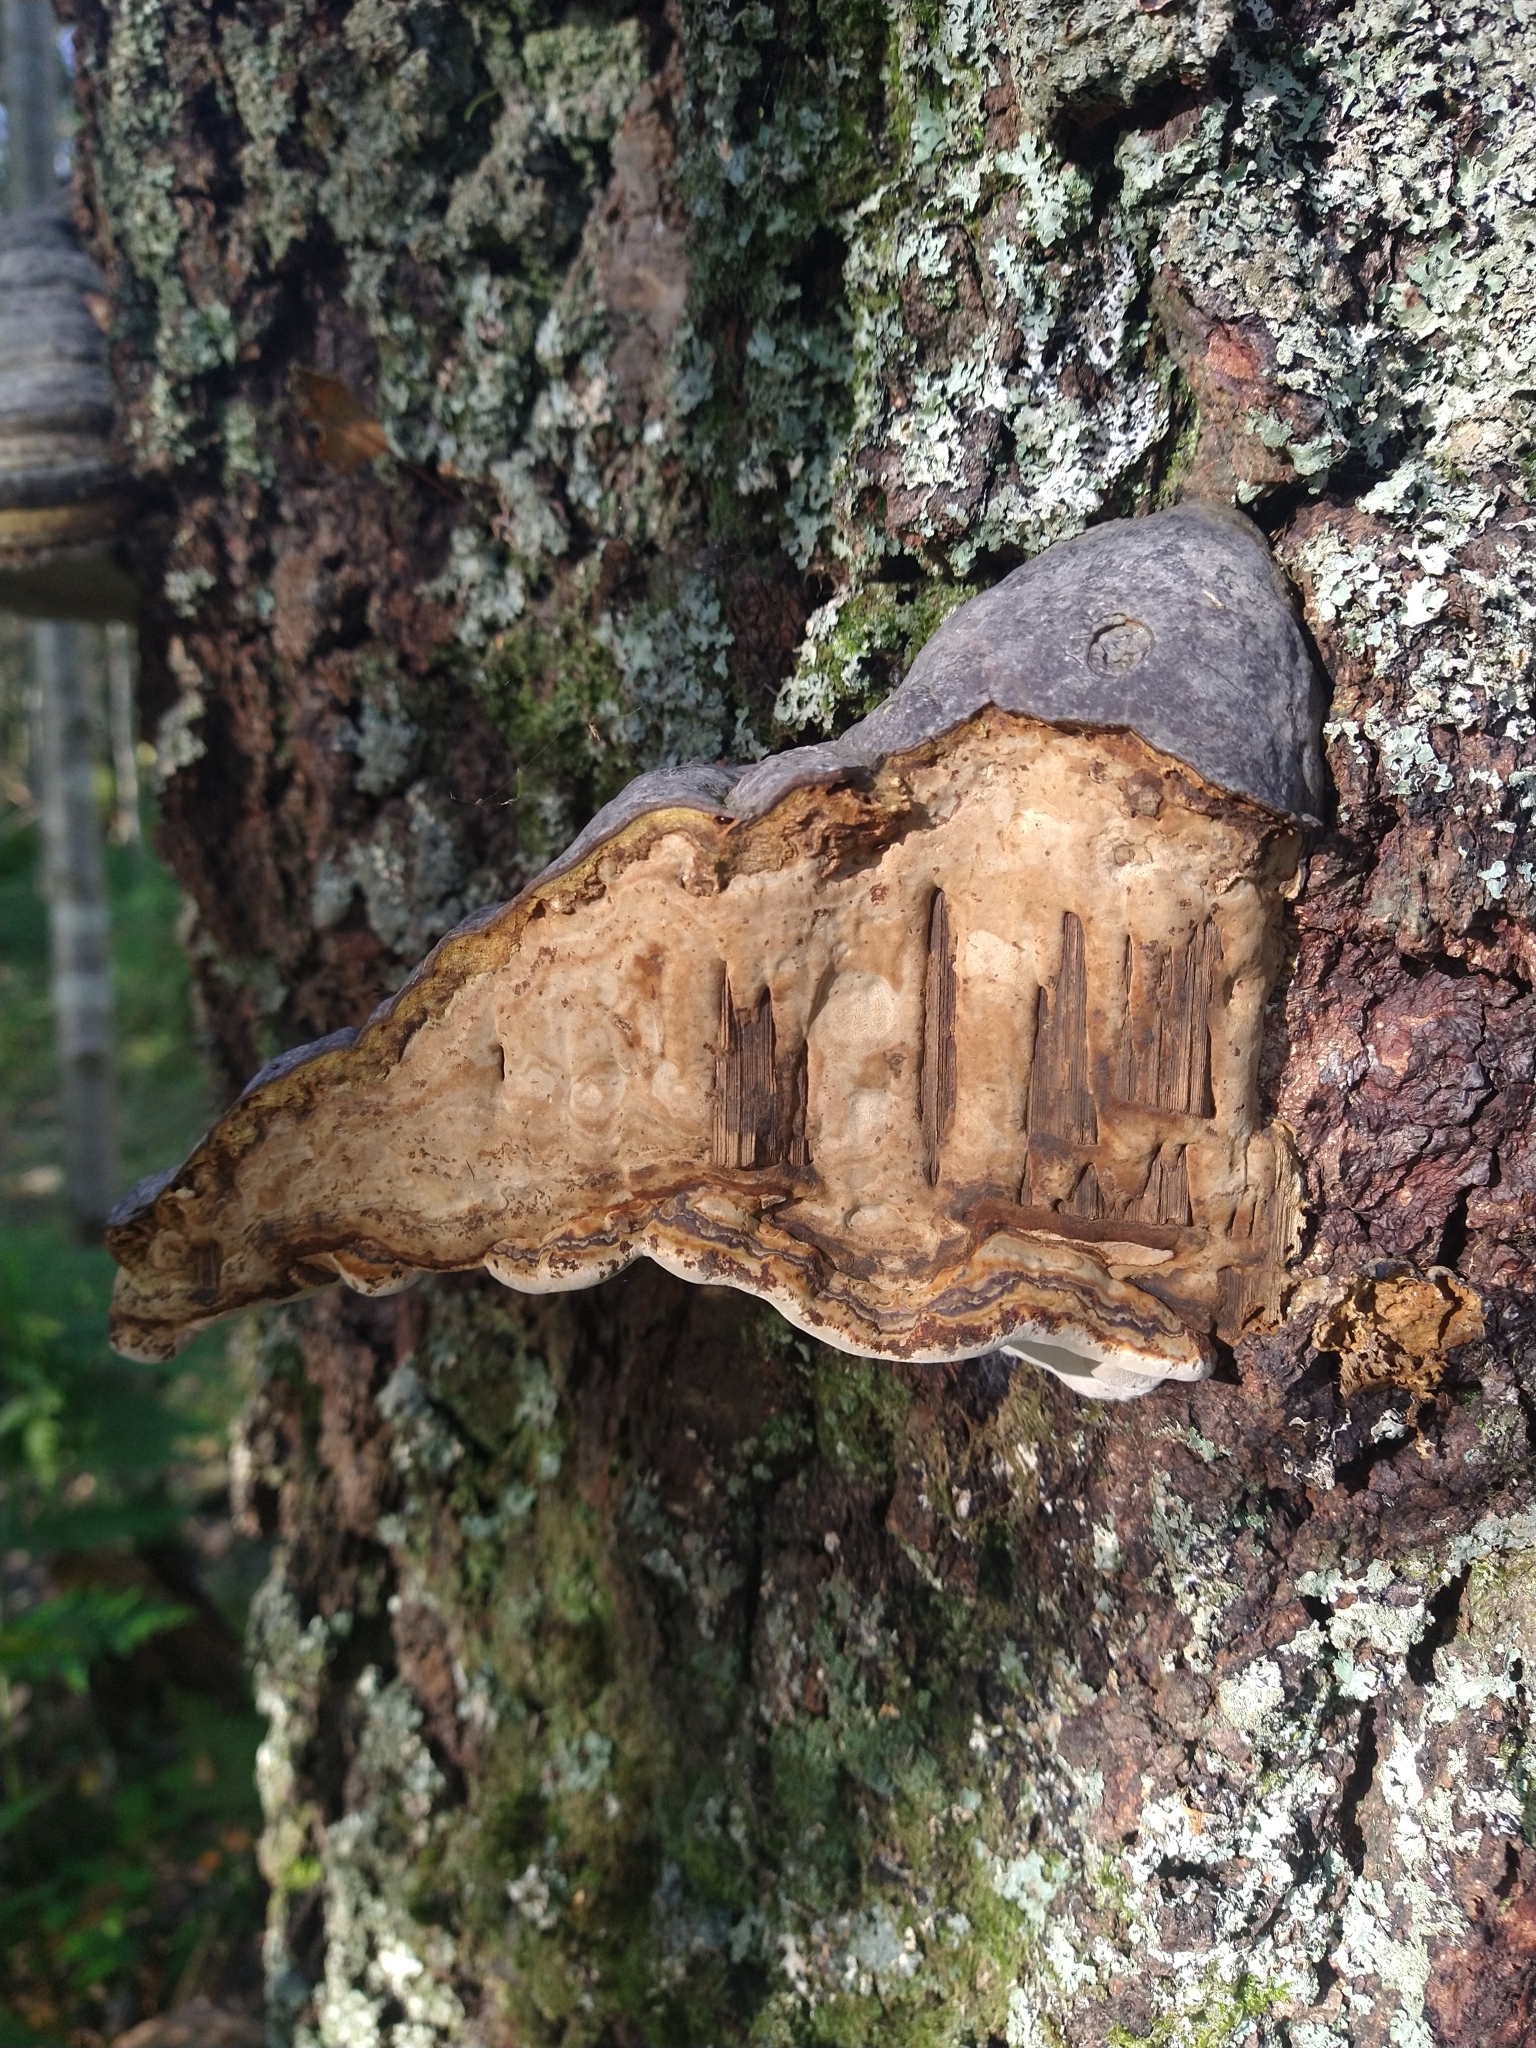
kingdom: Fungi
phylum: Basidiomycota
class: Agaricomycetes
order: Polyporales
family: Polyporaceae
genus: Fomes
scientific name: Fomes fomentarius
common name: Hoof fungus
